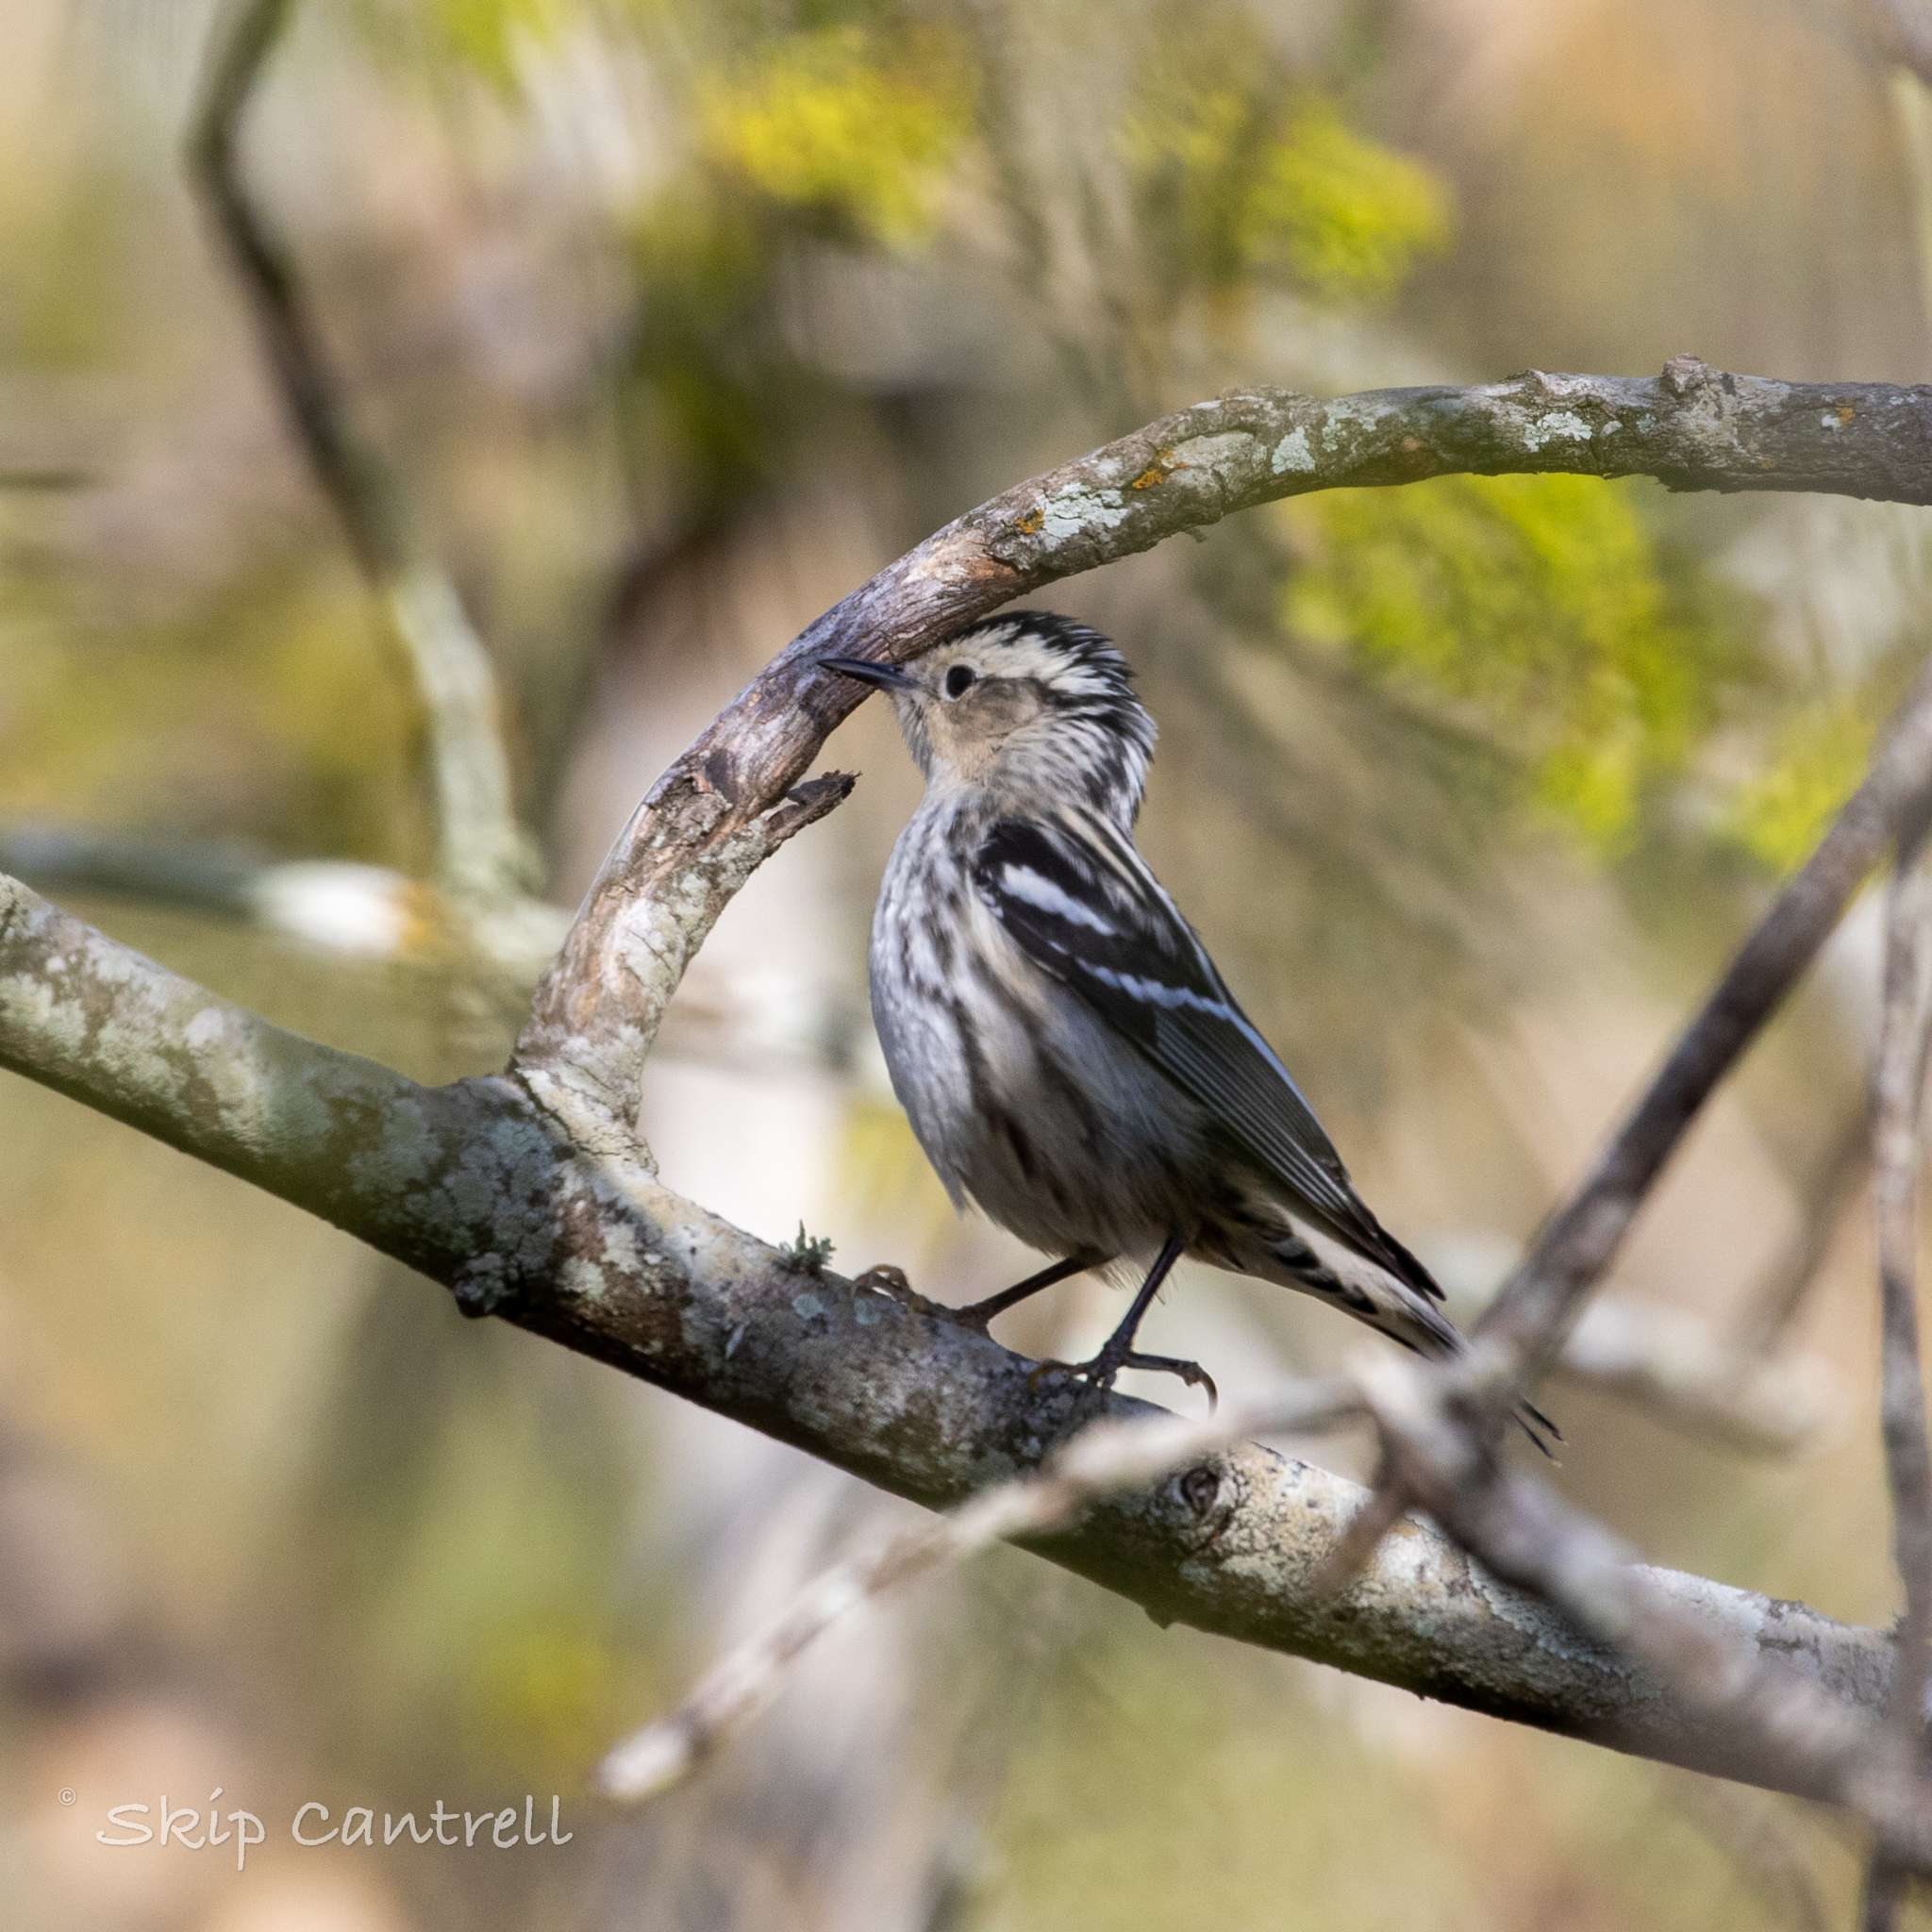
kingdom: Animalia
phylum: Chordata
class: Aves
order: Passeriformes
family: Parulidae
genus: Mniotilta
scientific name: Mniotilta varia
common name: Black-and-white warbler
